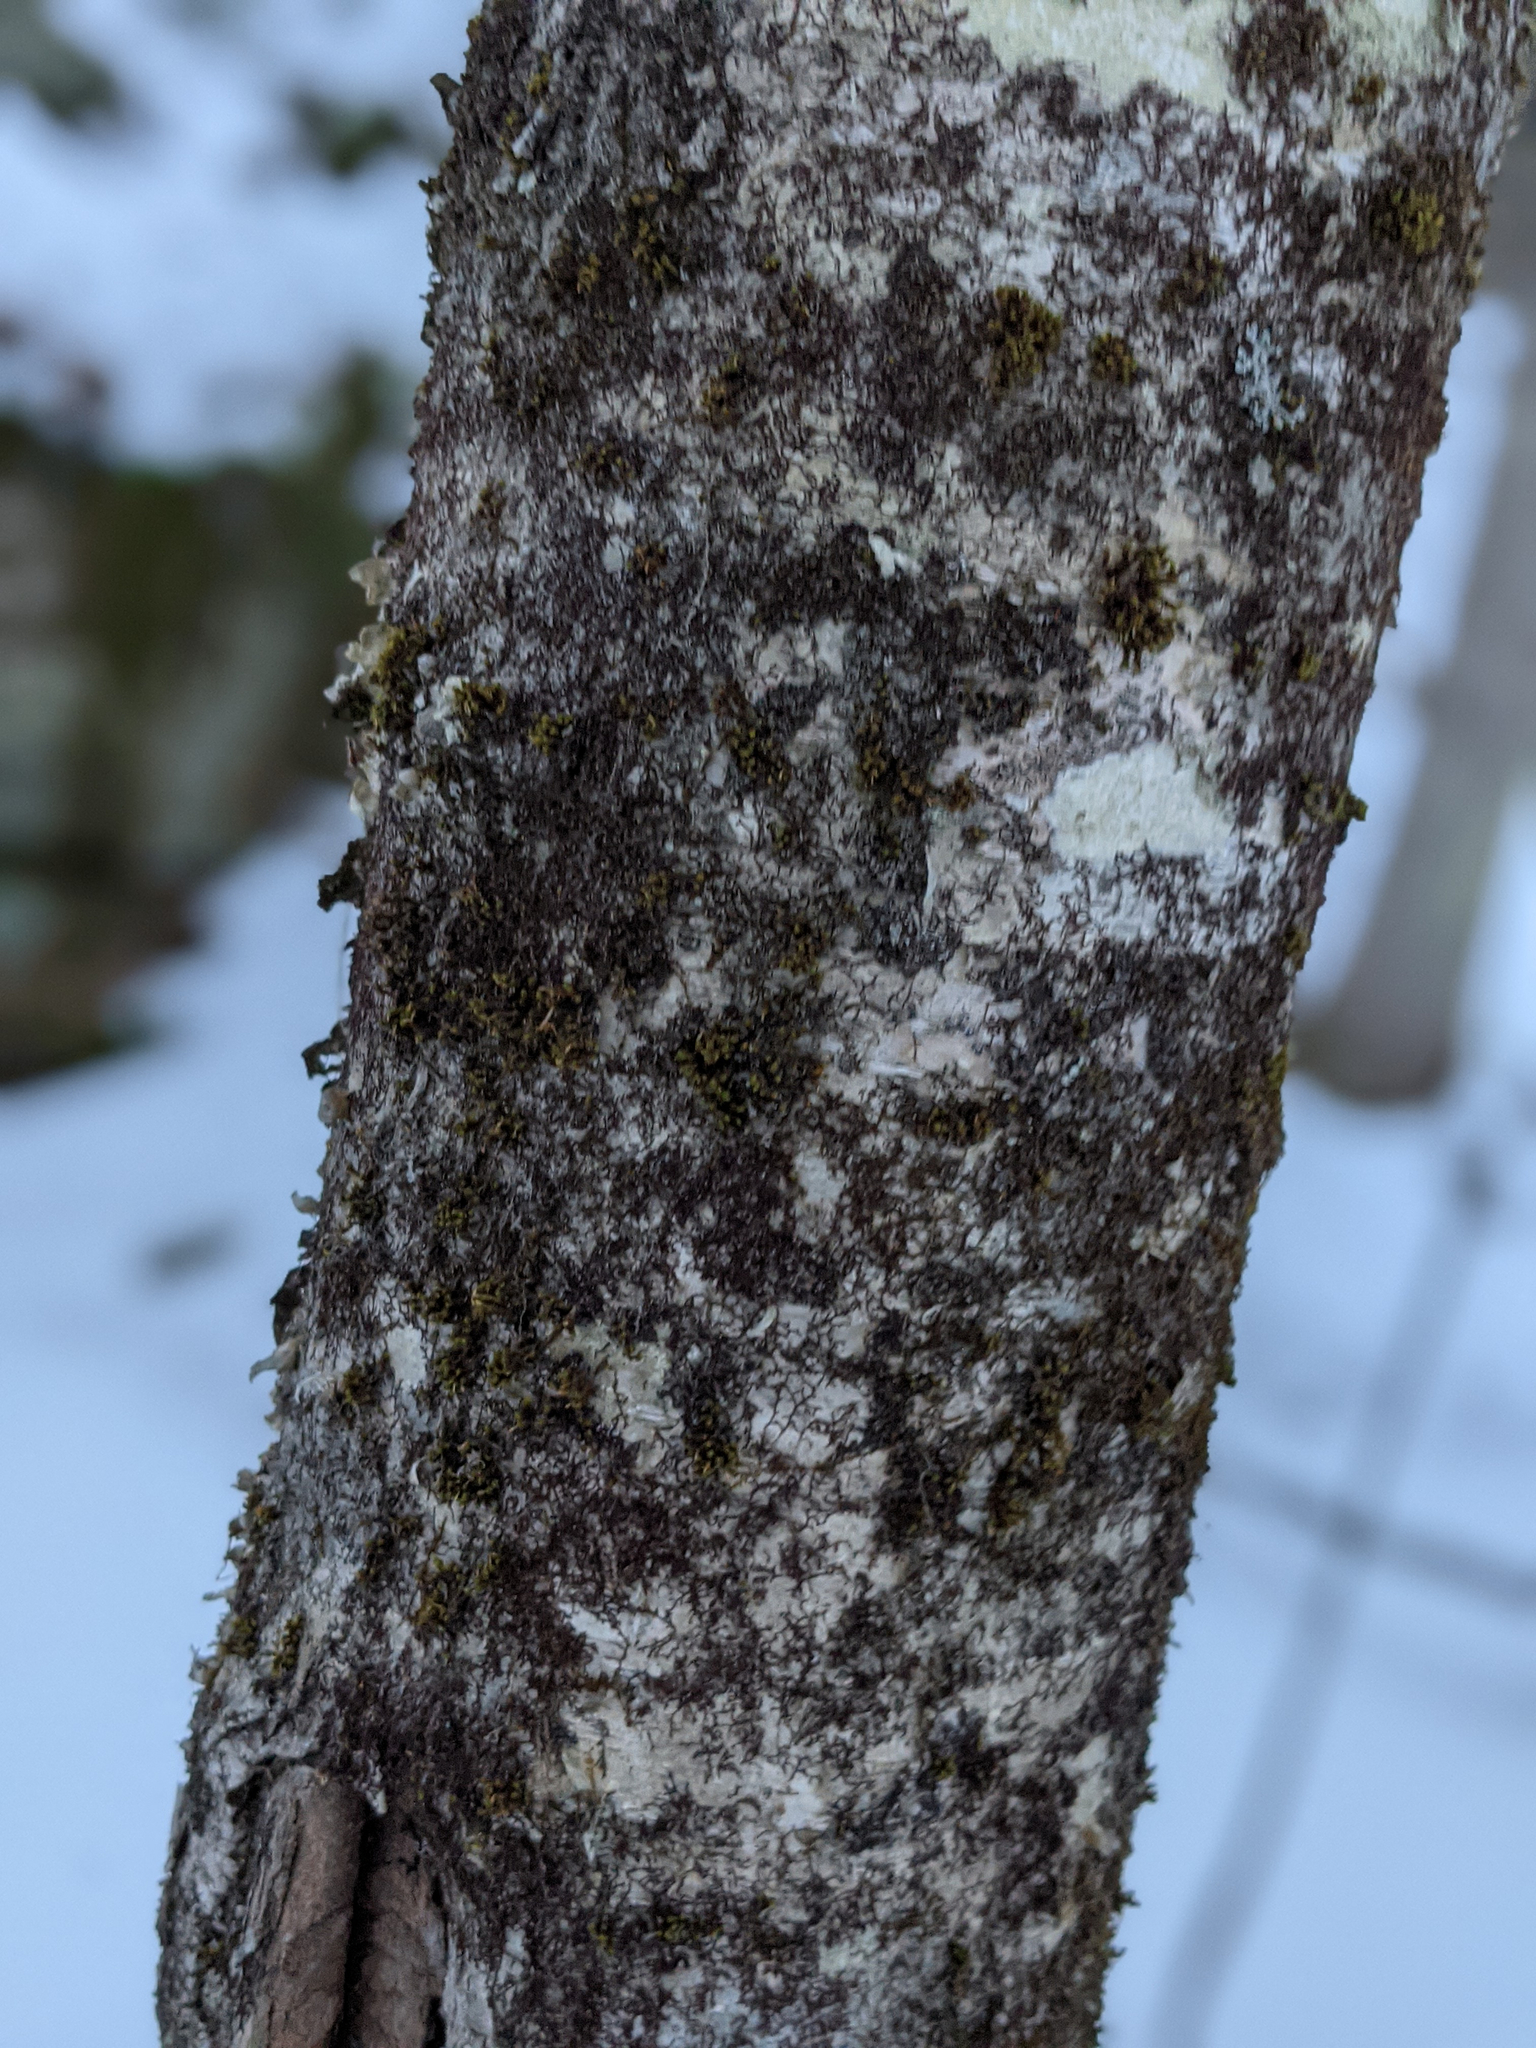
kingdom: Plantae
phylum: Bryophyta
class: Bryopsida
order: Orthotrichales
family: Orthotrichaceae
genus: Ulota
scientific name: Ulota crispa
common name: Crisped pincushion moss
